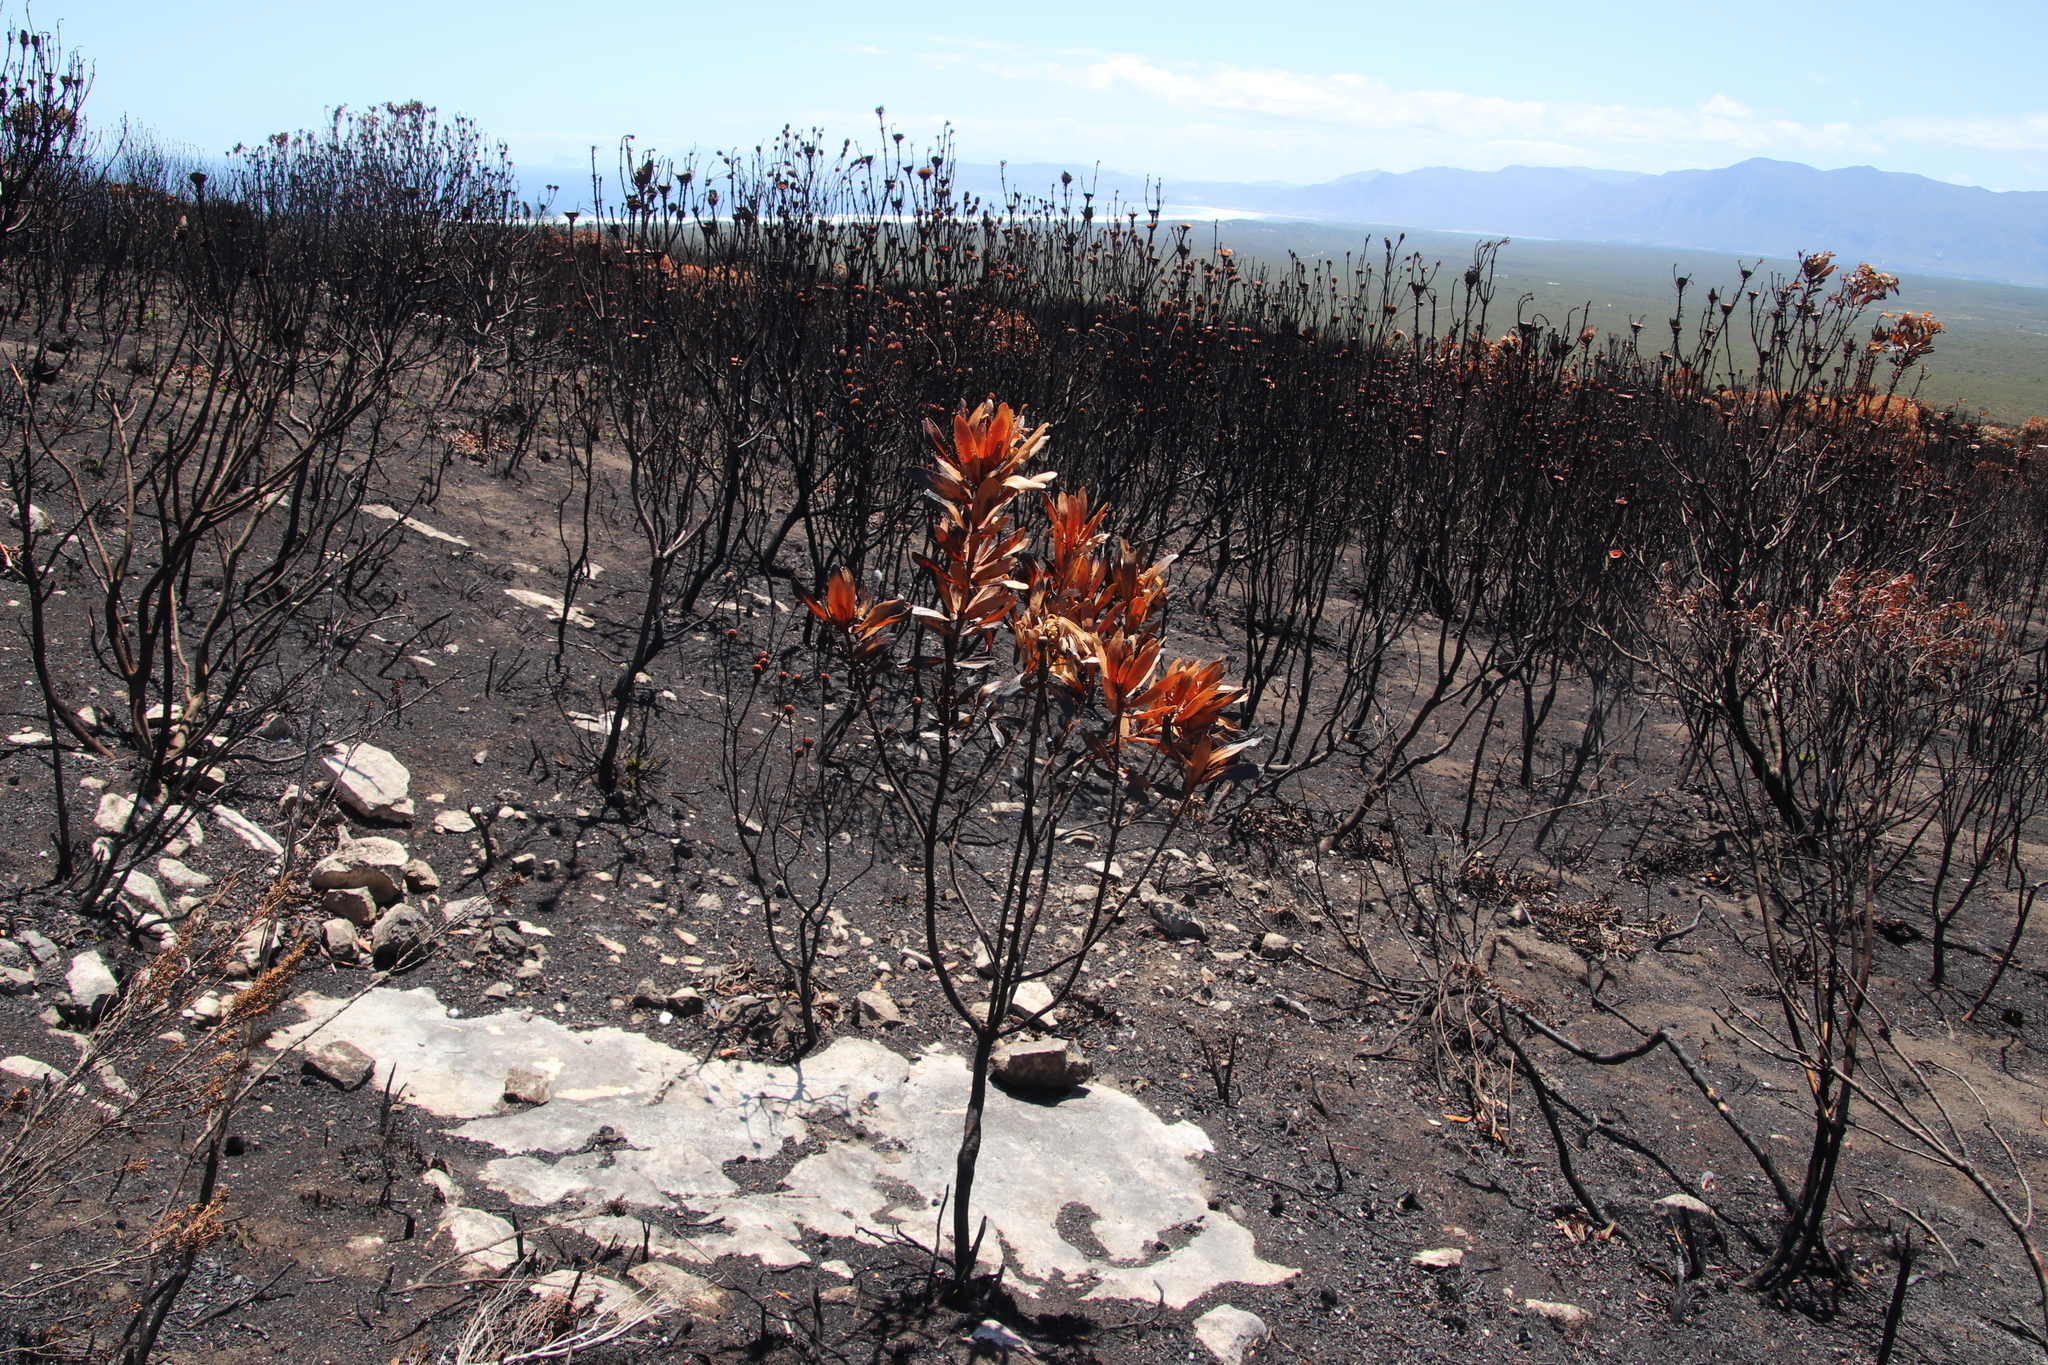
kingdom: Plantae
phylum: Tracheophyta
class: Magnoliopsida
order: Proteales
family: Proteaceae
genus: Protea
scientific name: Protea obtusifolia
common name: Bredasdorp sugarbush
